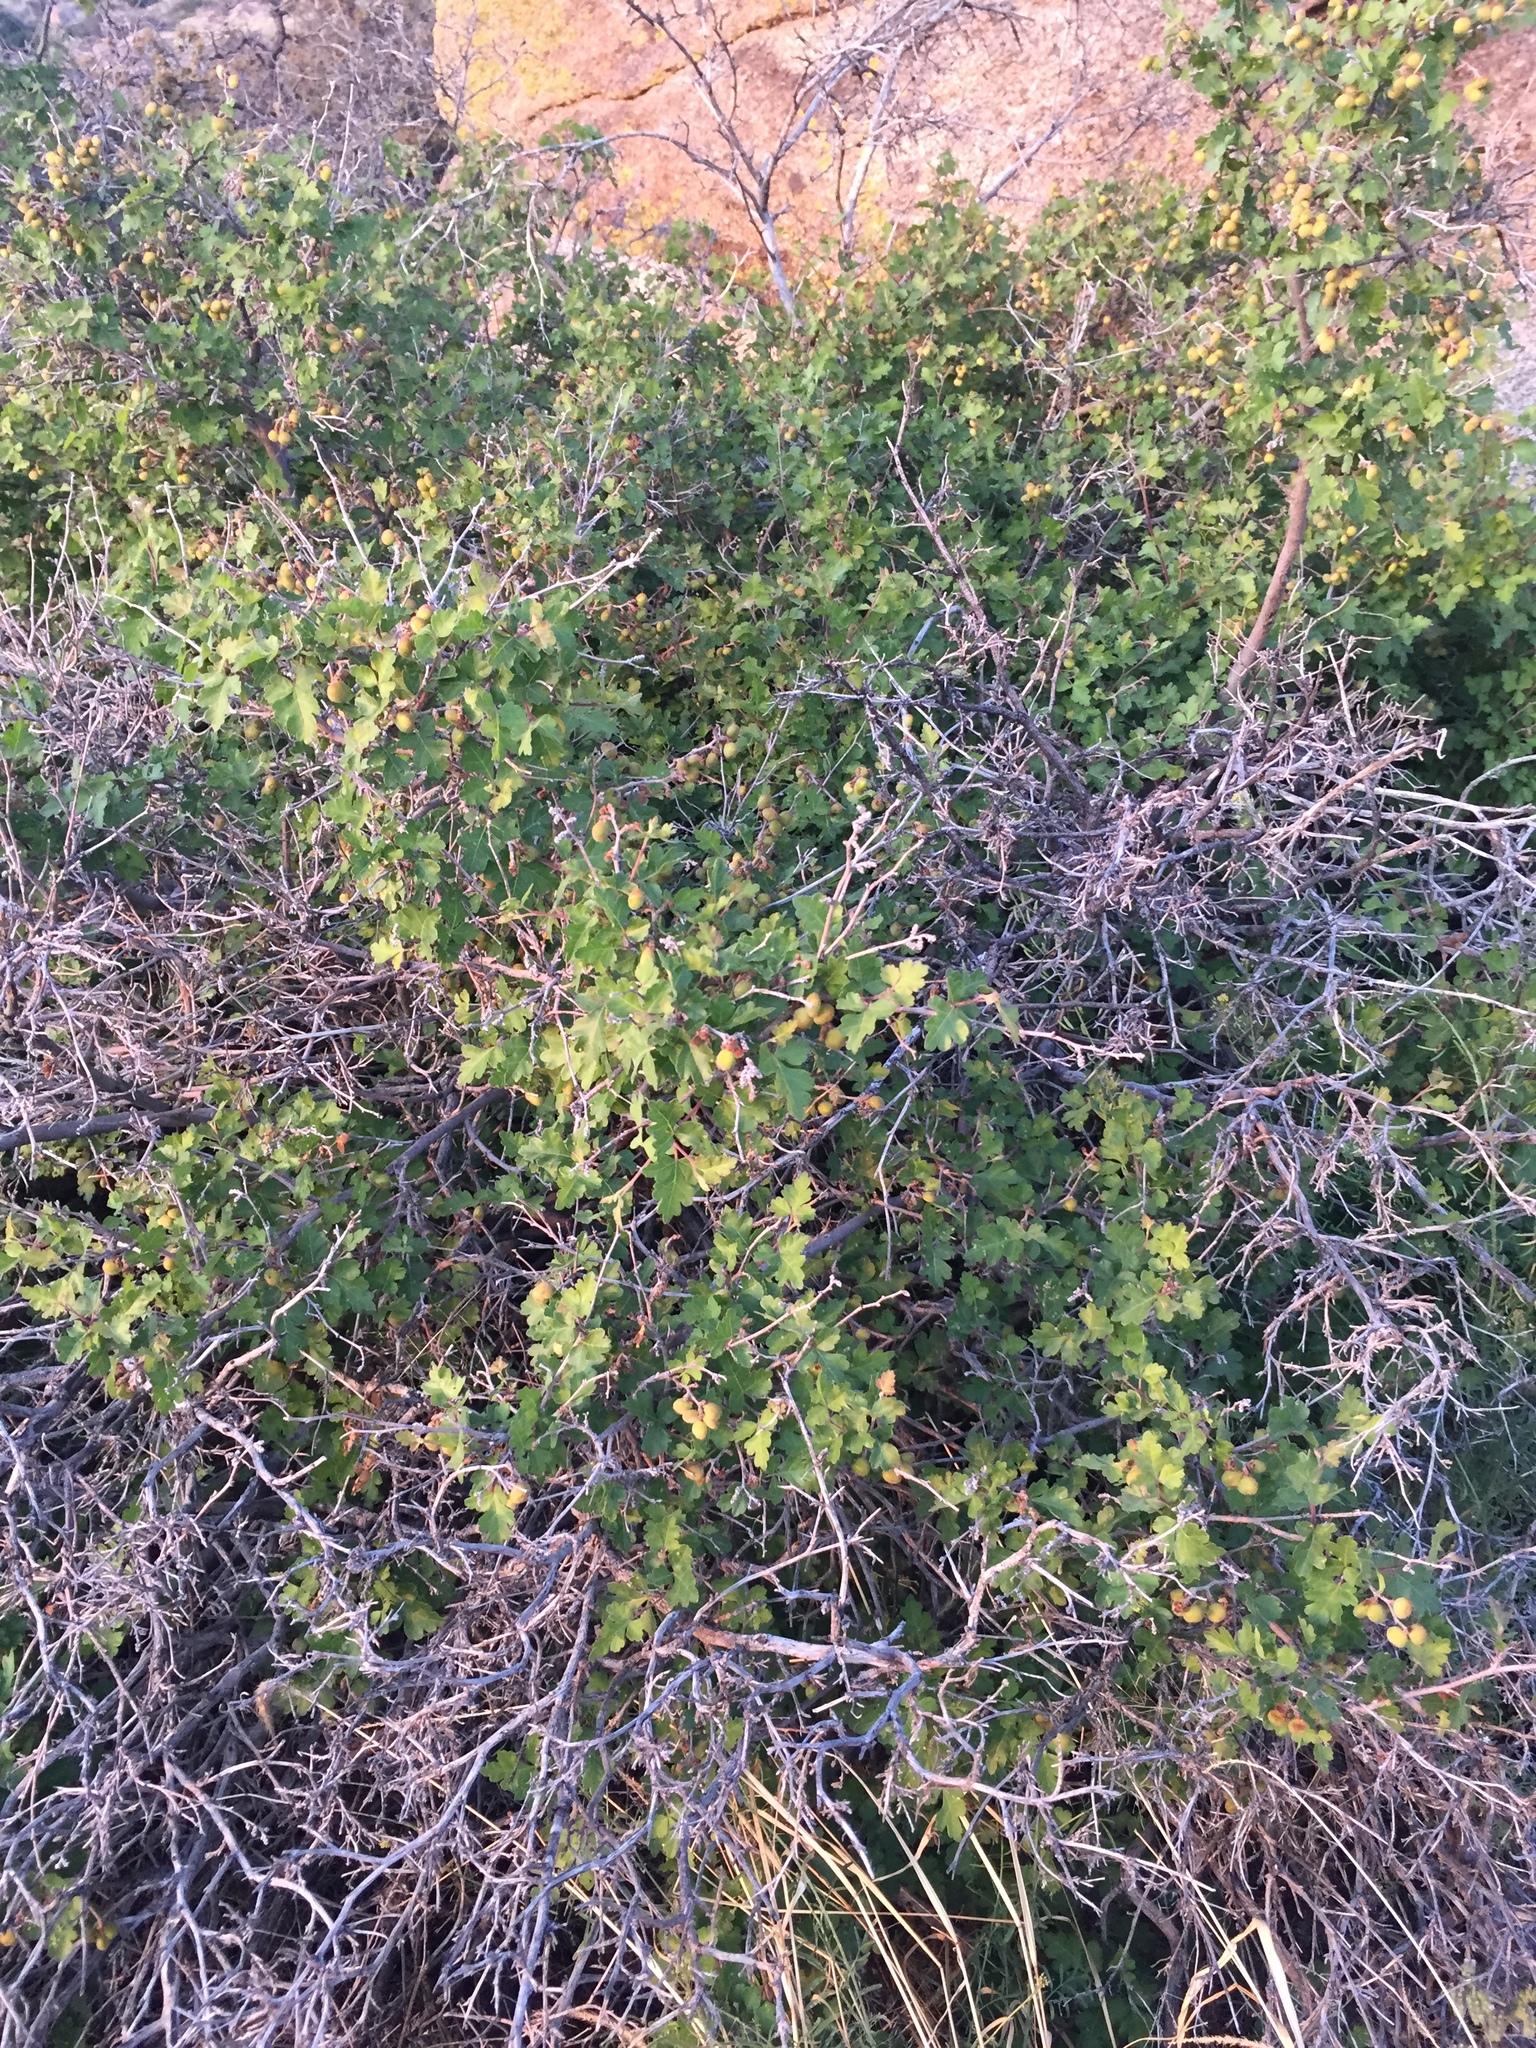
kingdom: Plantae
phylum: Tracheophyta
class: Magnoliopsida
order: Sapindales
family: Anacardiaceae
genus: Rhus
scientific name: Rhus aromatica
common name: Aromatic sumac
